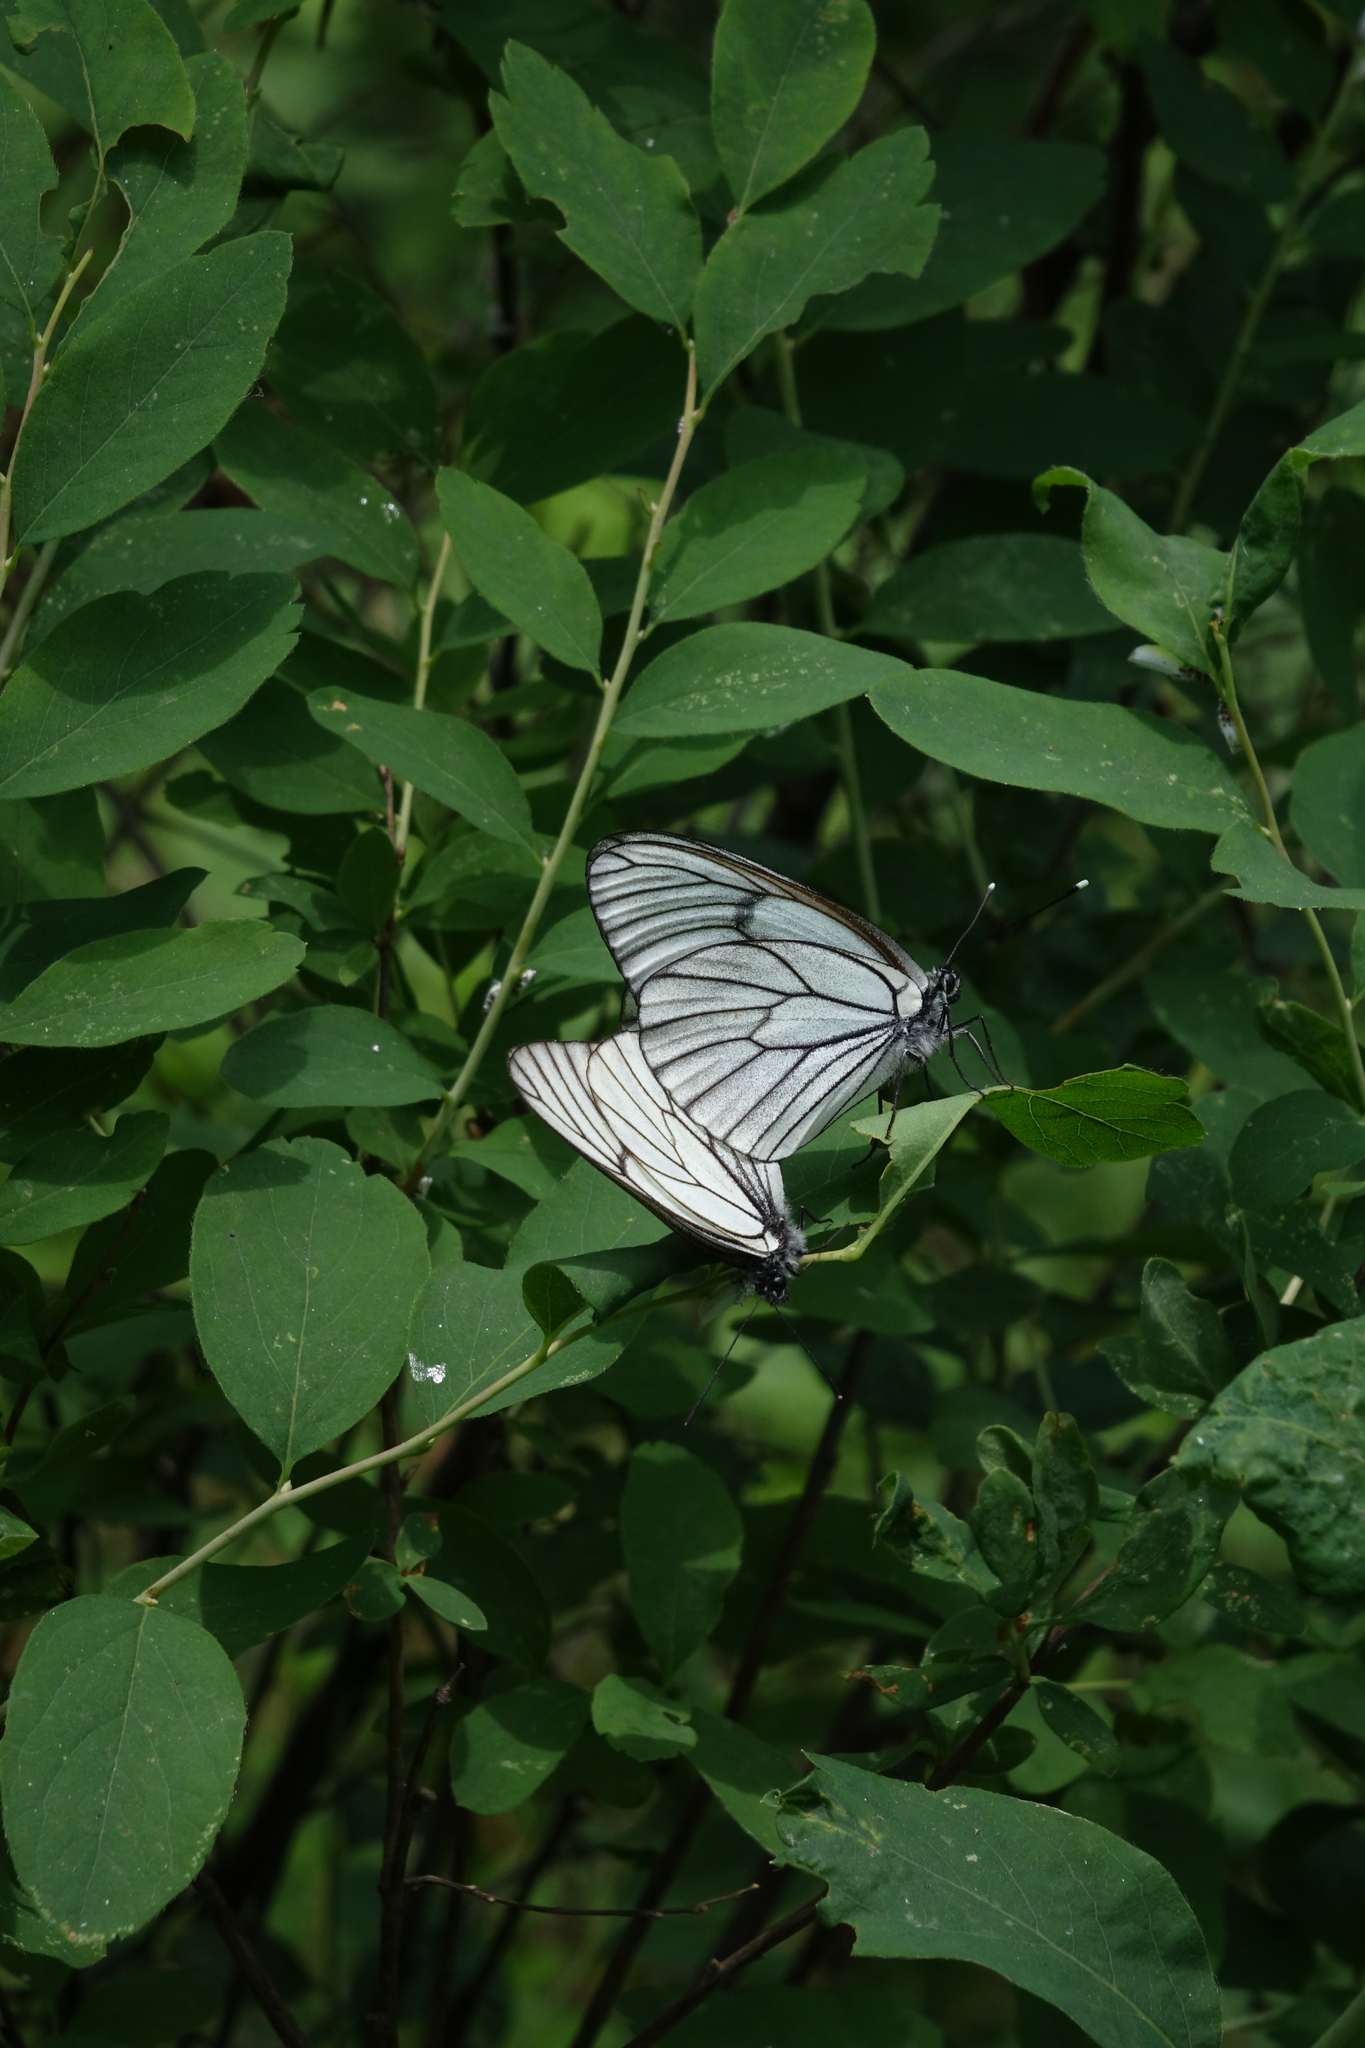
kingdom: Animalia
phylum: Arthropoda
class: Insecta
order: Lepidoptera
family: Pieridae
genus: Aporia
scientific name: Aporia crataegi
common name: Black-veined white
